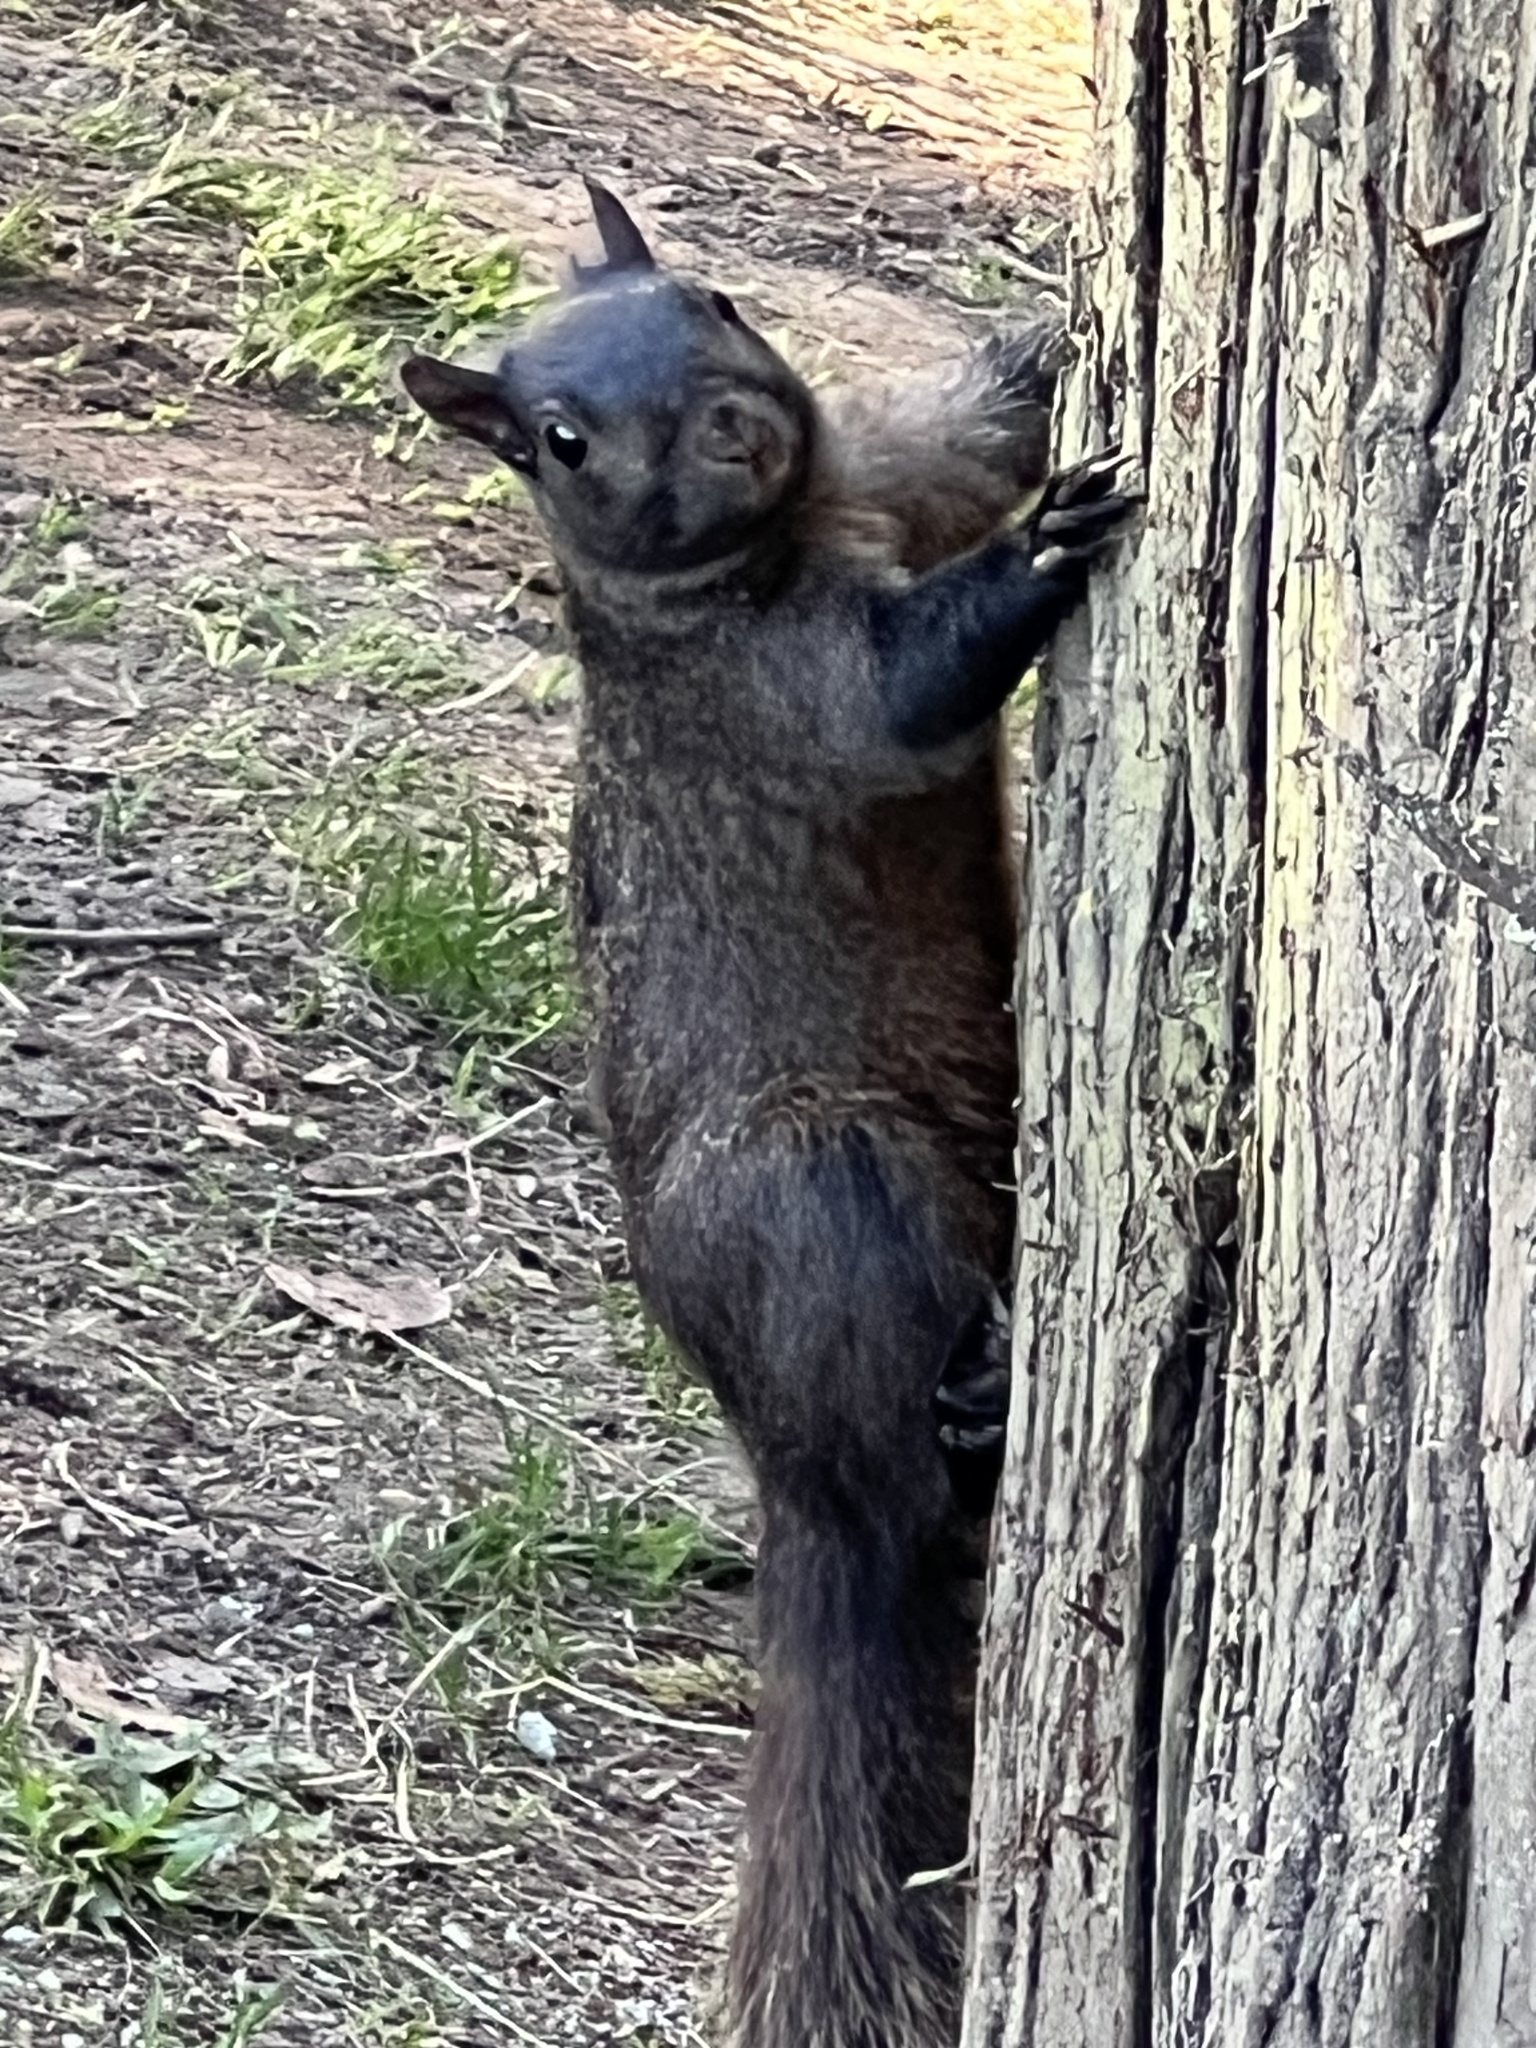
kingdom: Animalia
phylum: Chordata
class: Mammalia
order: Rodentia
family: Sciuridae
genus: Sciurus
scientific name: Sciurus carolinensis
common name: Eastern gray squirrel
